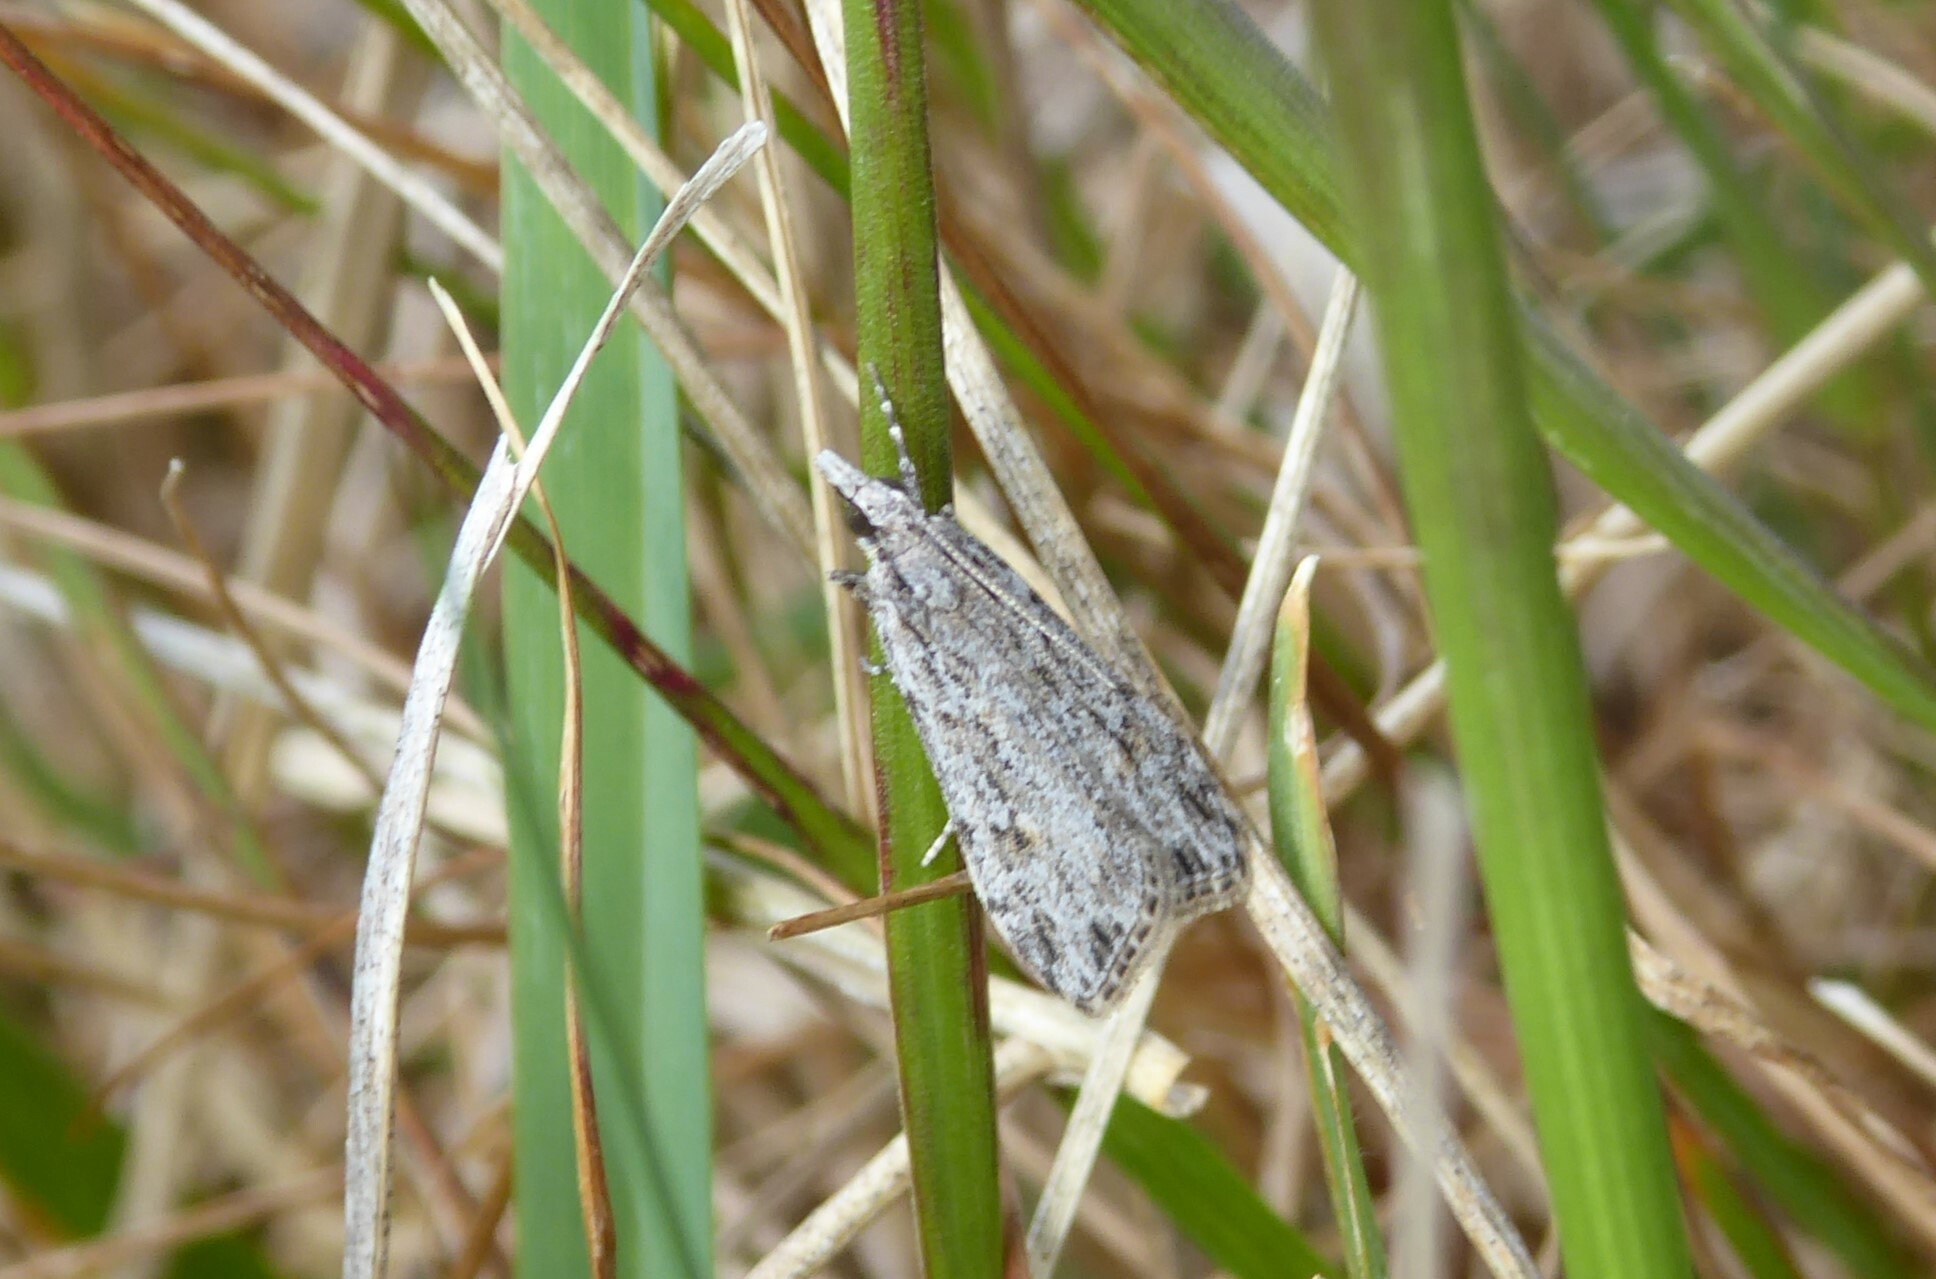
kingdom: Animalia
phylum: Arthropoda
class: Insecta
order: Lepidoptera
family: Crambidae
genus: Scoparia
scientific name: Scoparia chalicodes
